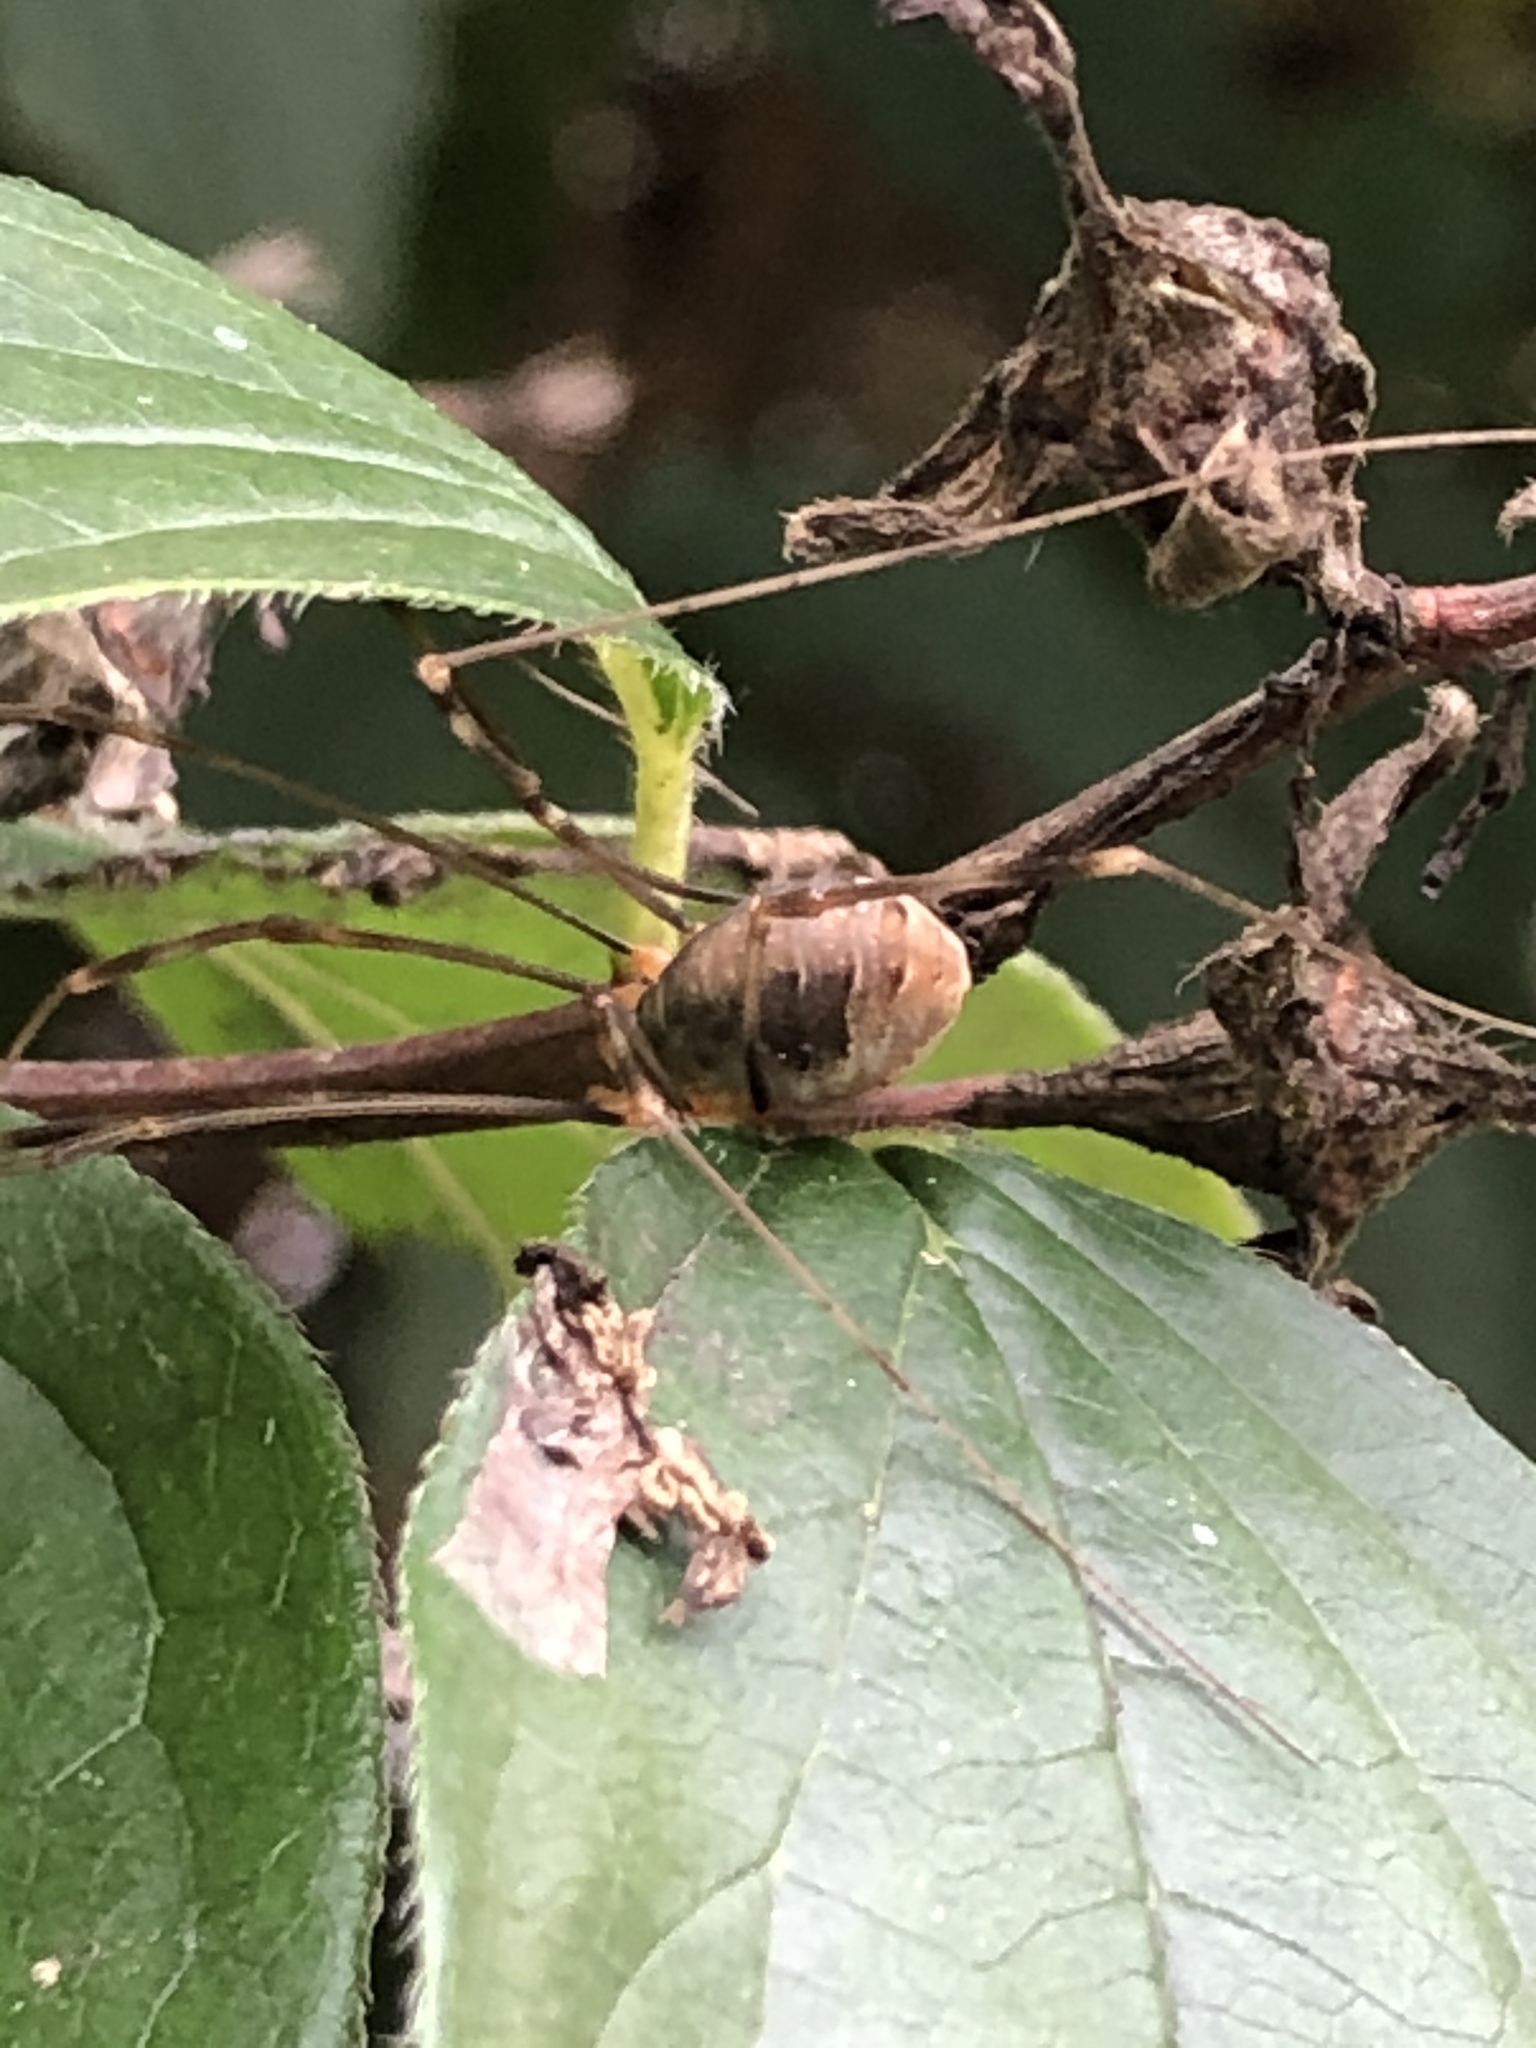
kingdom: Animalia
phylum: Arthropoda
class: Arachnida
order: Opiliones
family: Phalangiidae
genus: Opilio
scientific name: Opilio canestrinii
